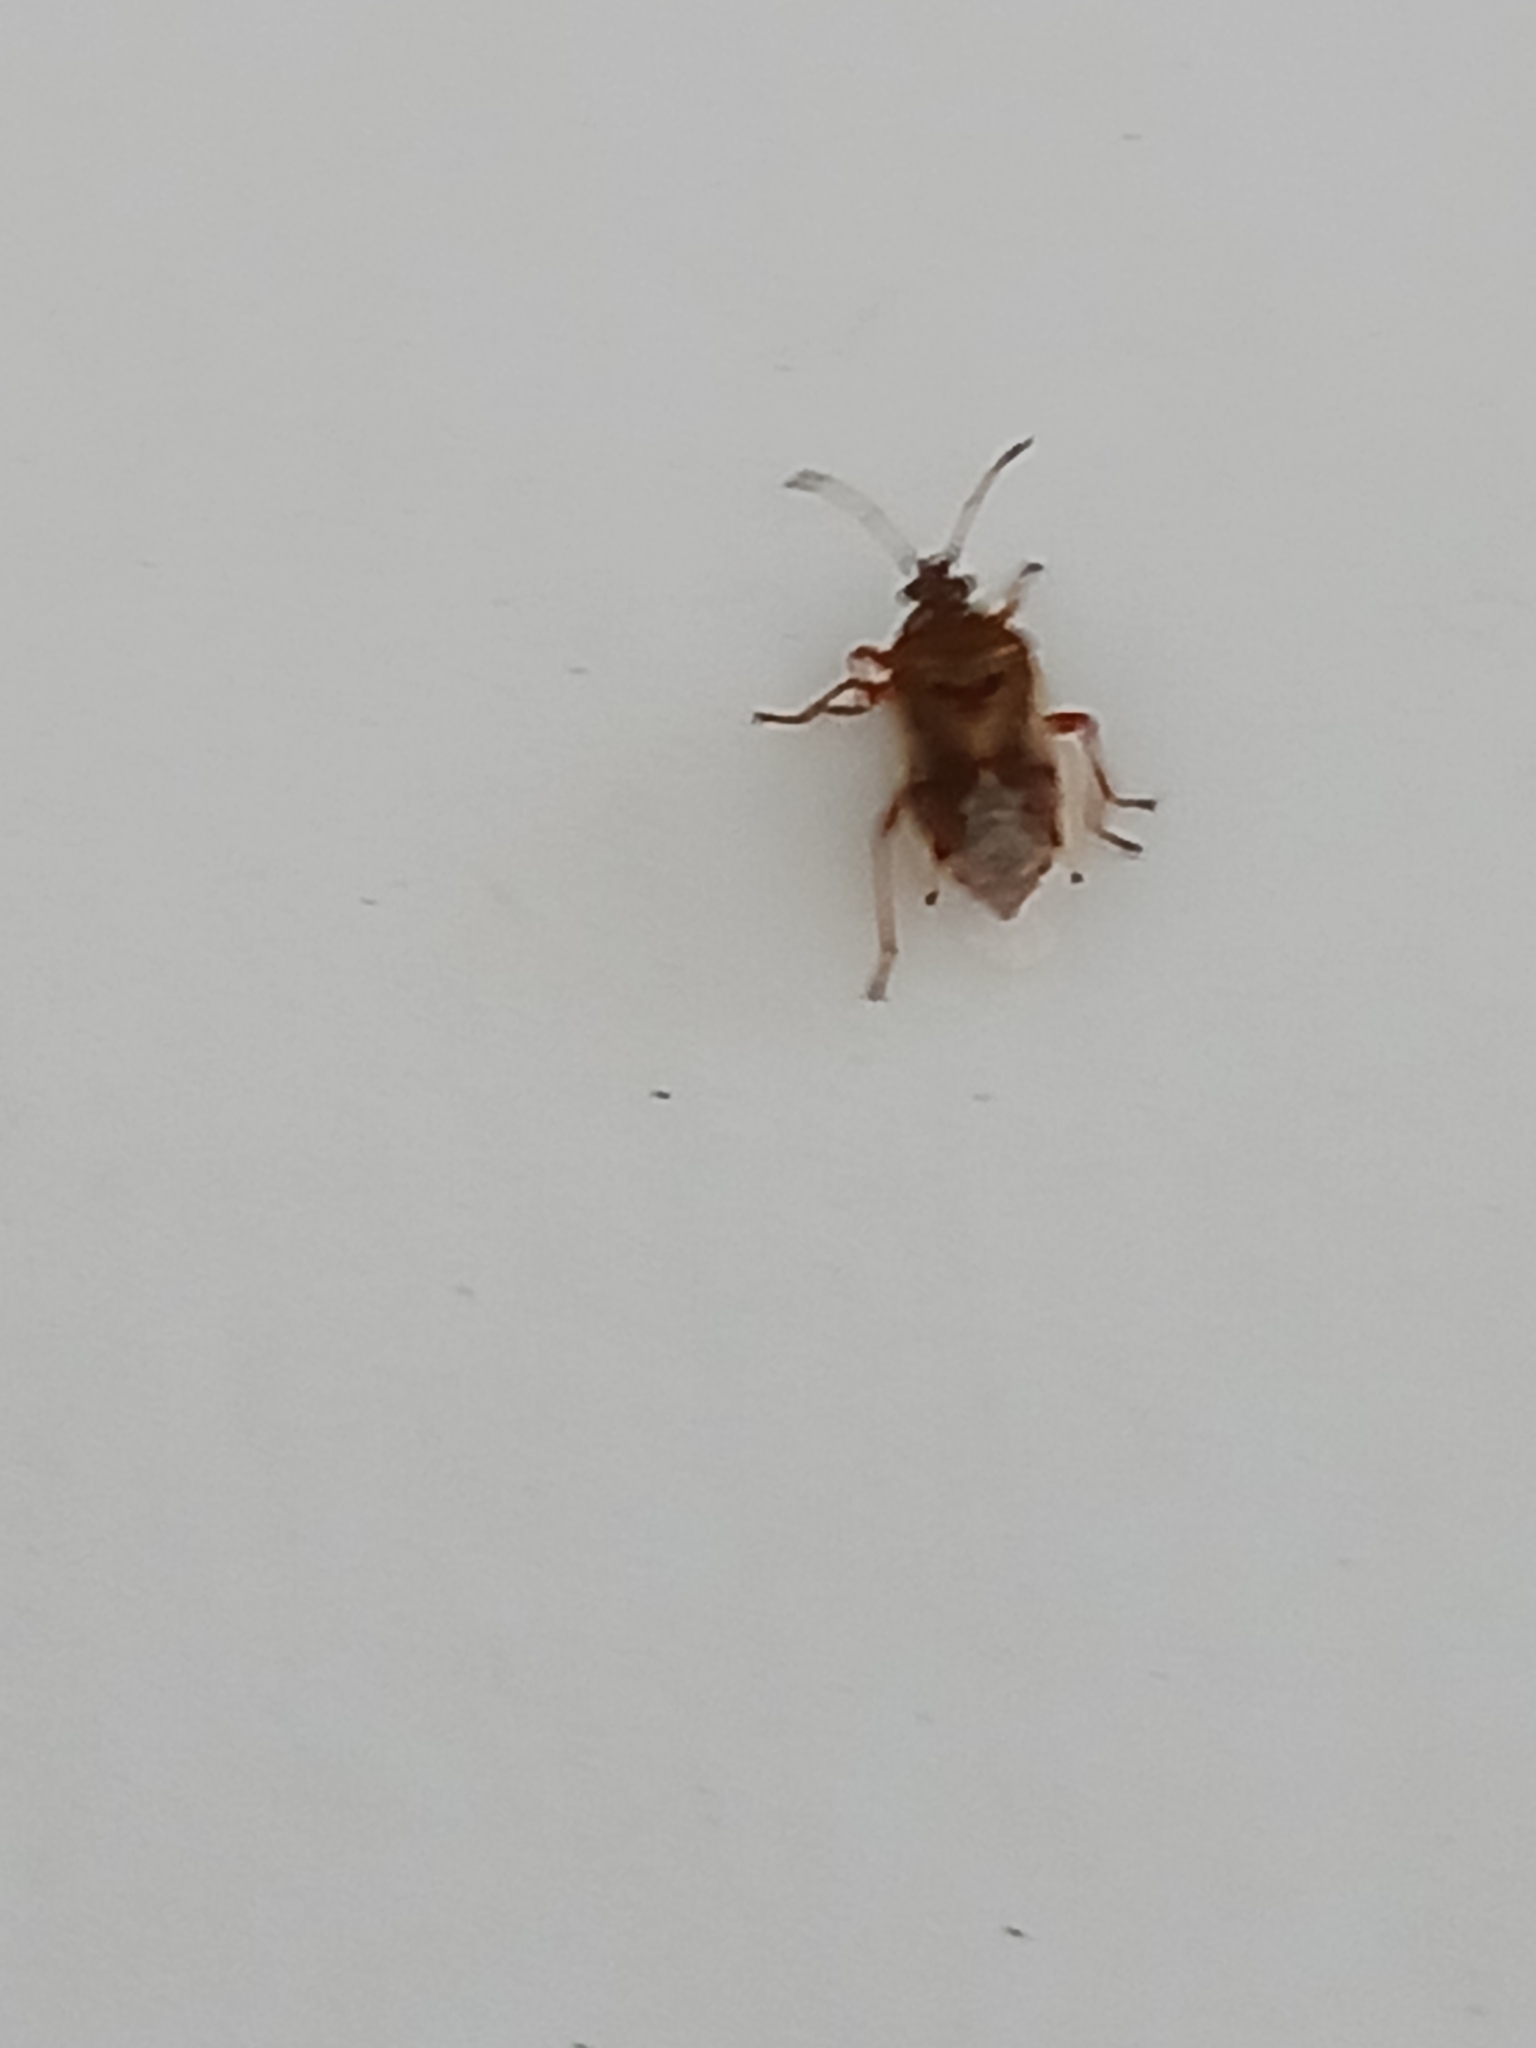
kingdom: Animalia
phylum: Arthropoda
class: Insecta
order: Hemiptera
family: Lygaeidae
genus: Kleidocerys
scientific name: Kleidocerys resedae
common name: Birch catkin bug
